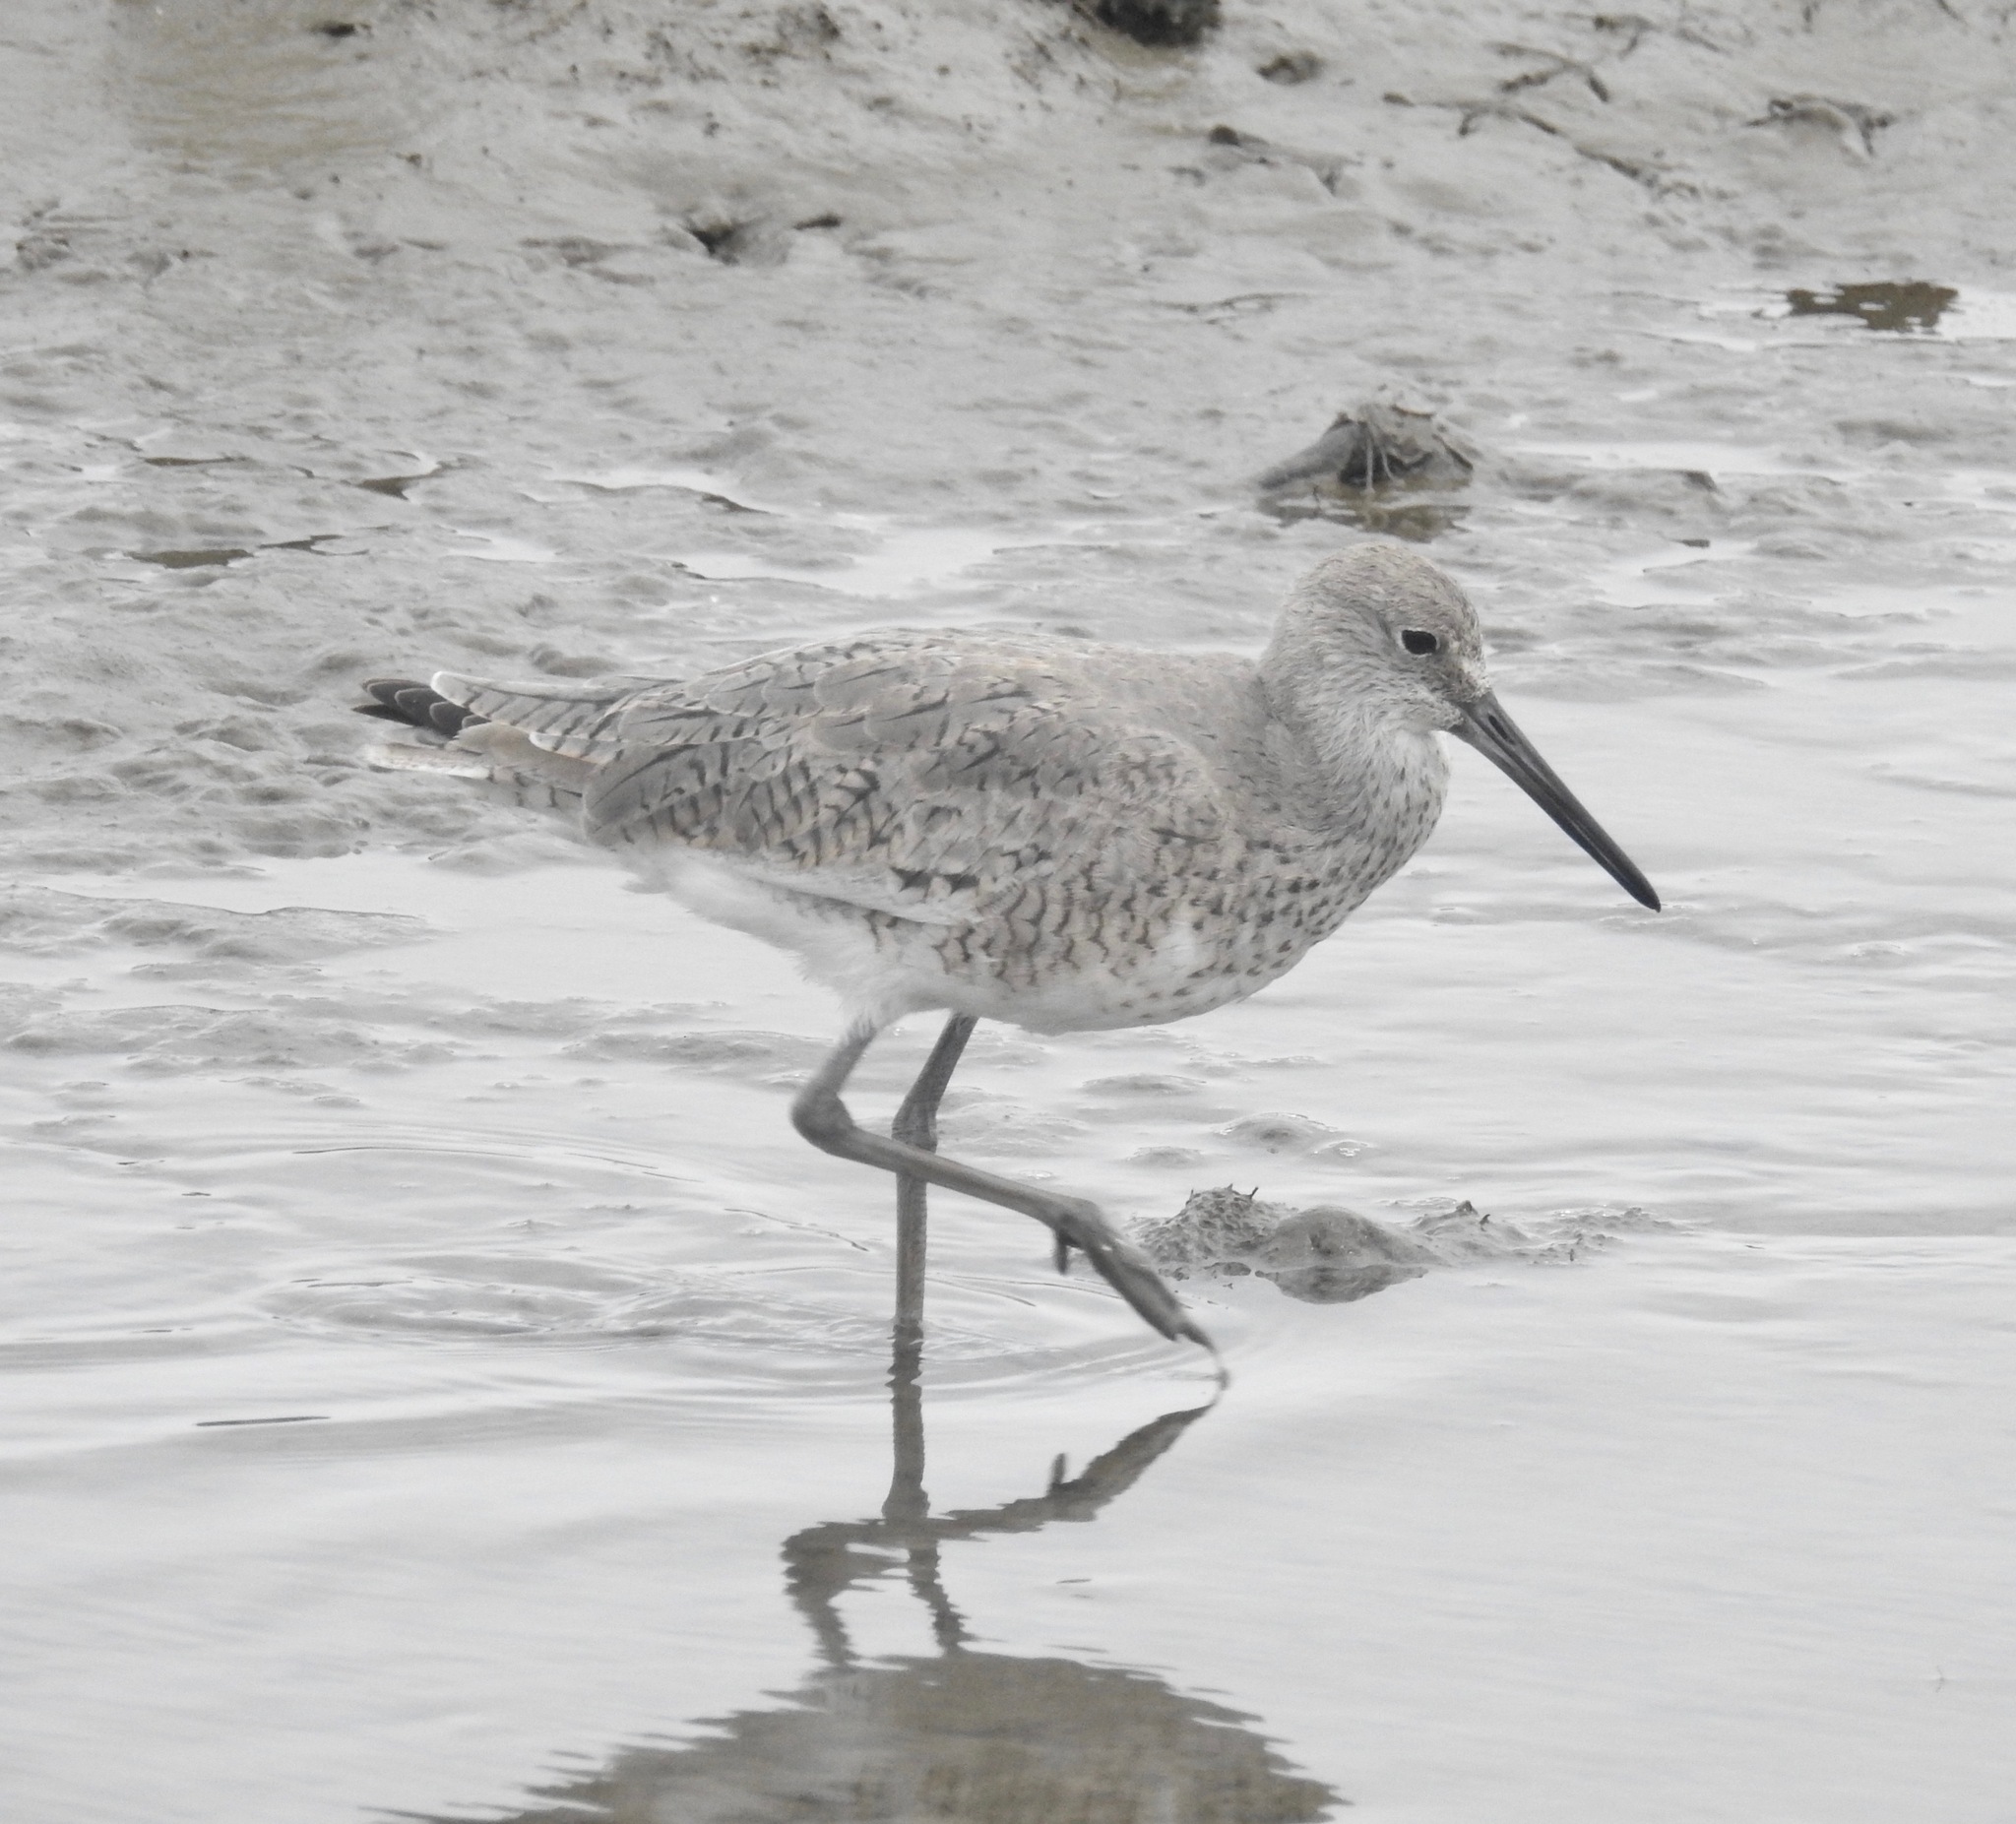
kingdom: Animalia
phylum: Chordata
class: Aves
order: Charadriiformes
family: Scolopacidae
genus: Tringa
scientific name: Tringa semipalmata
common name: Willet
